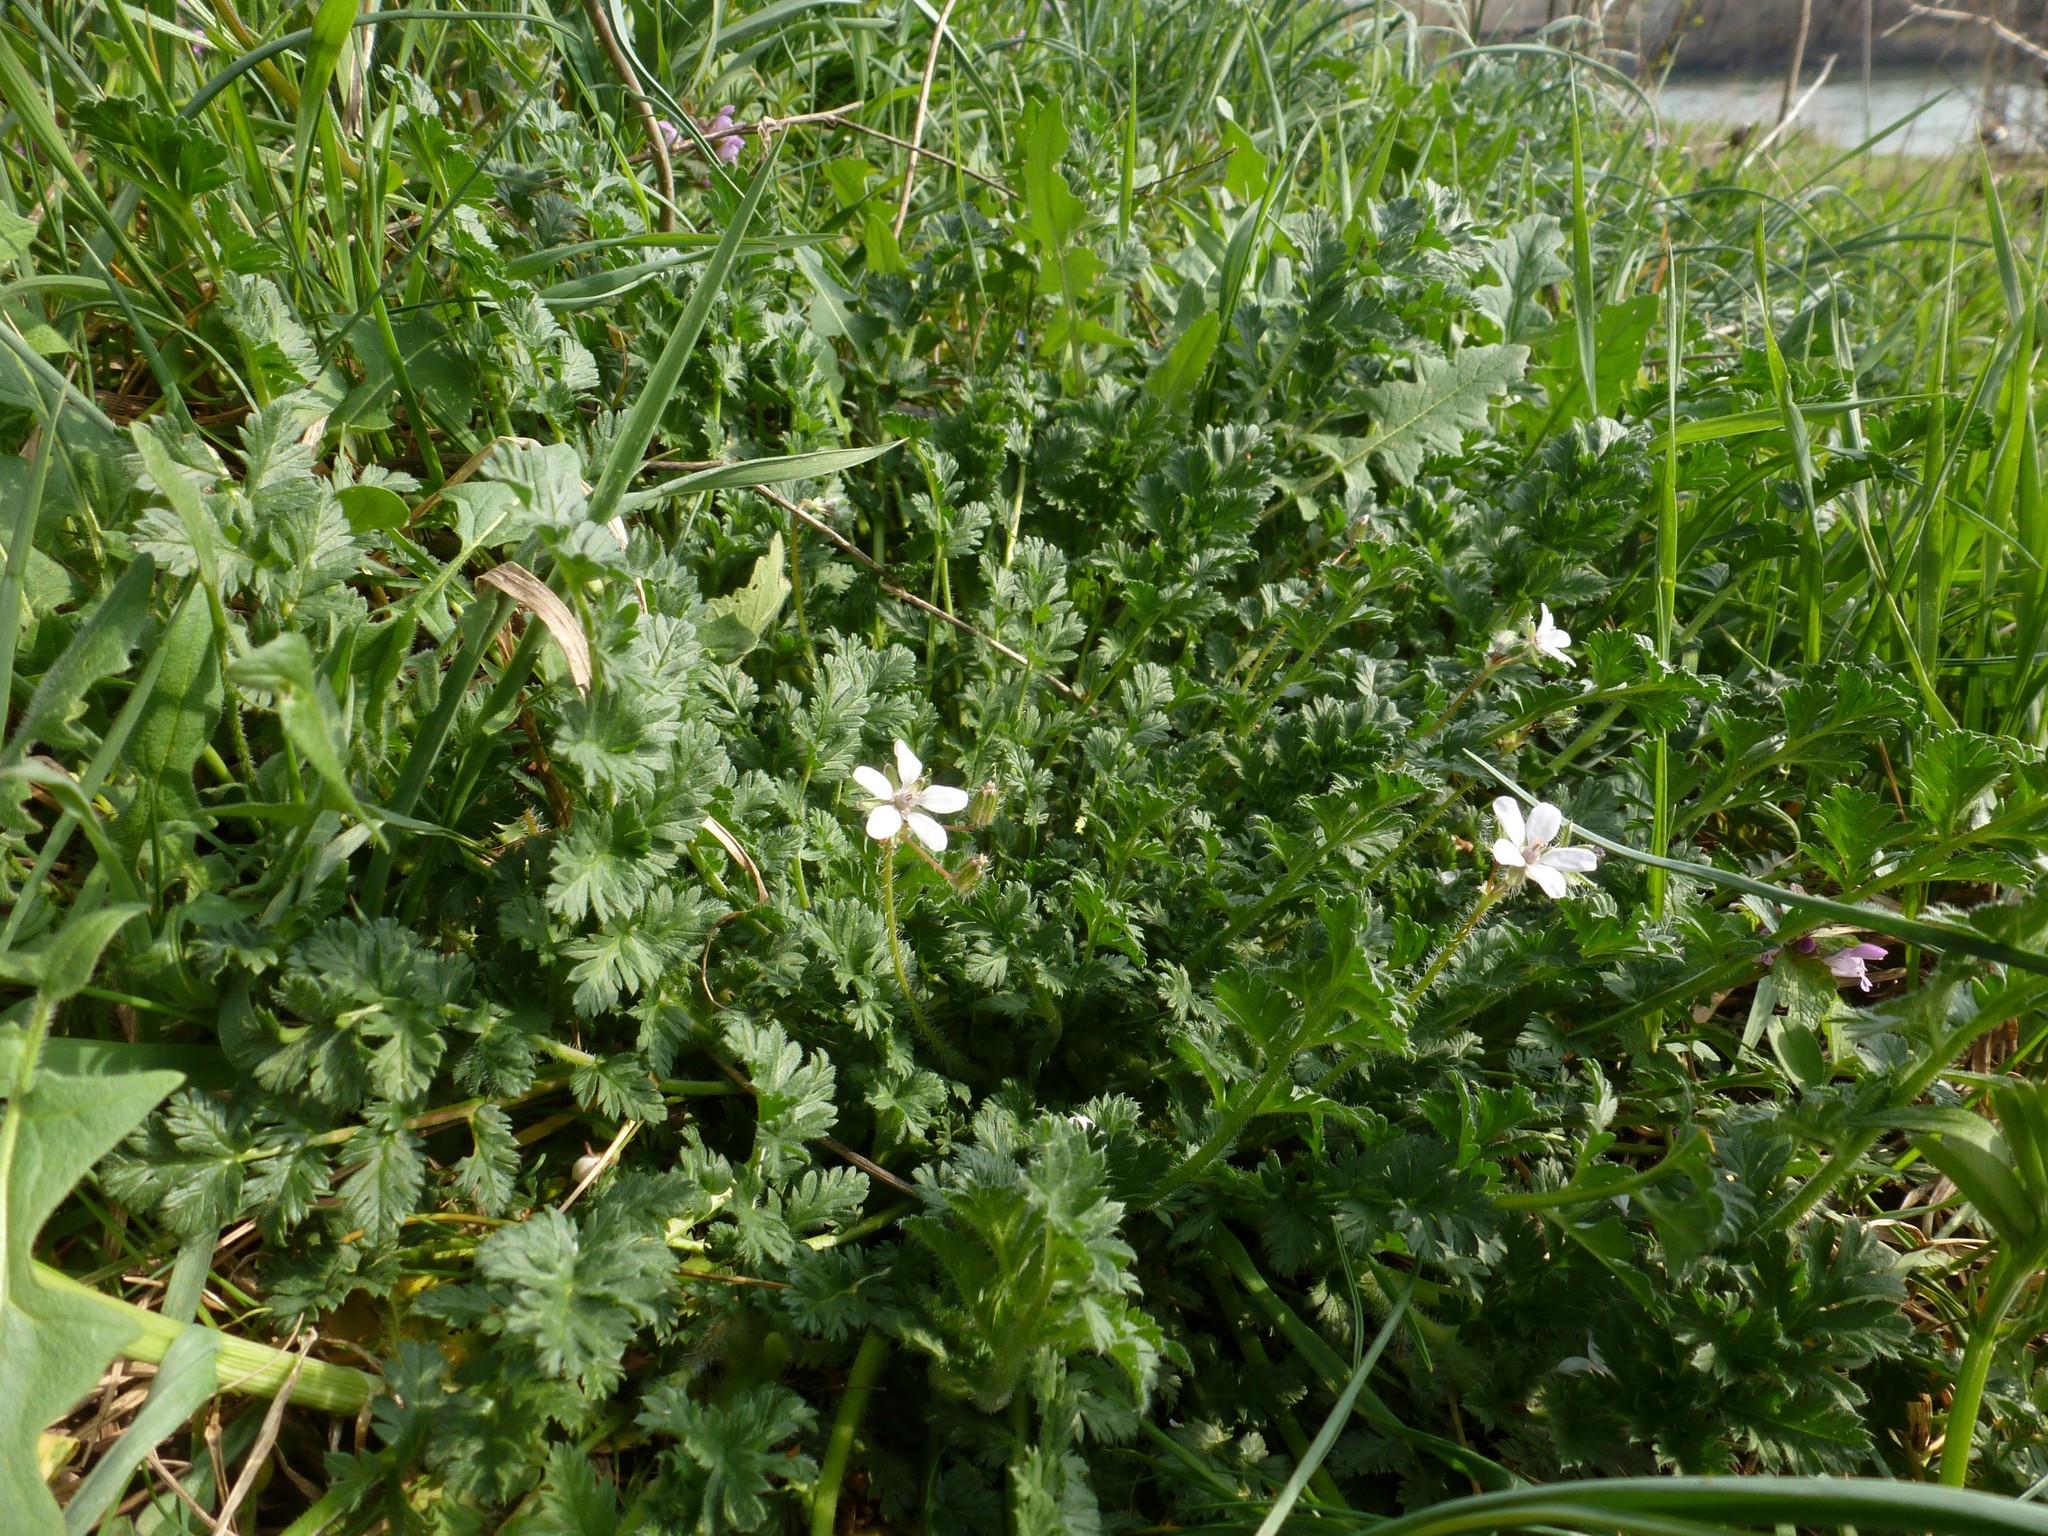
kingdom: Plantae
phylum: Tracheophyta
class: Magnoliopsida
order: Geraniales
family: Geraniaceae
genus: Erodium
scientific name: Erodium cicutarium
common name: Common stork's-bill
